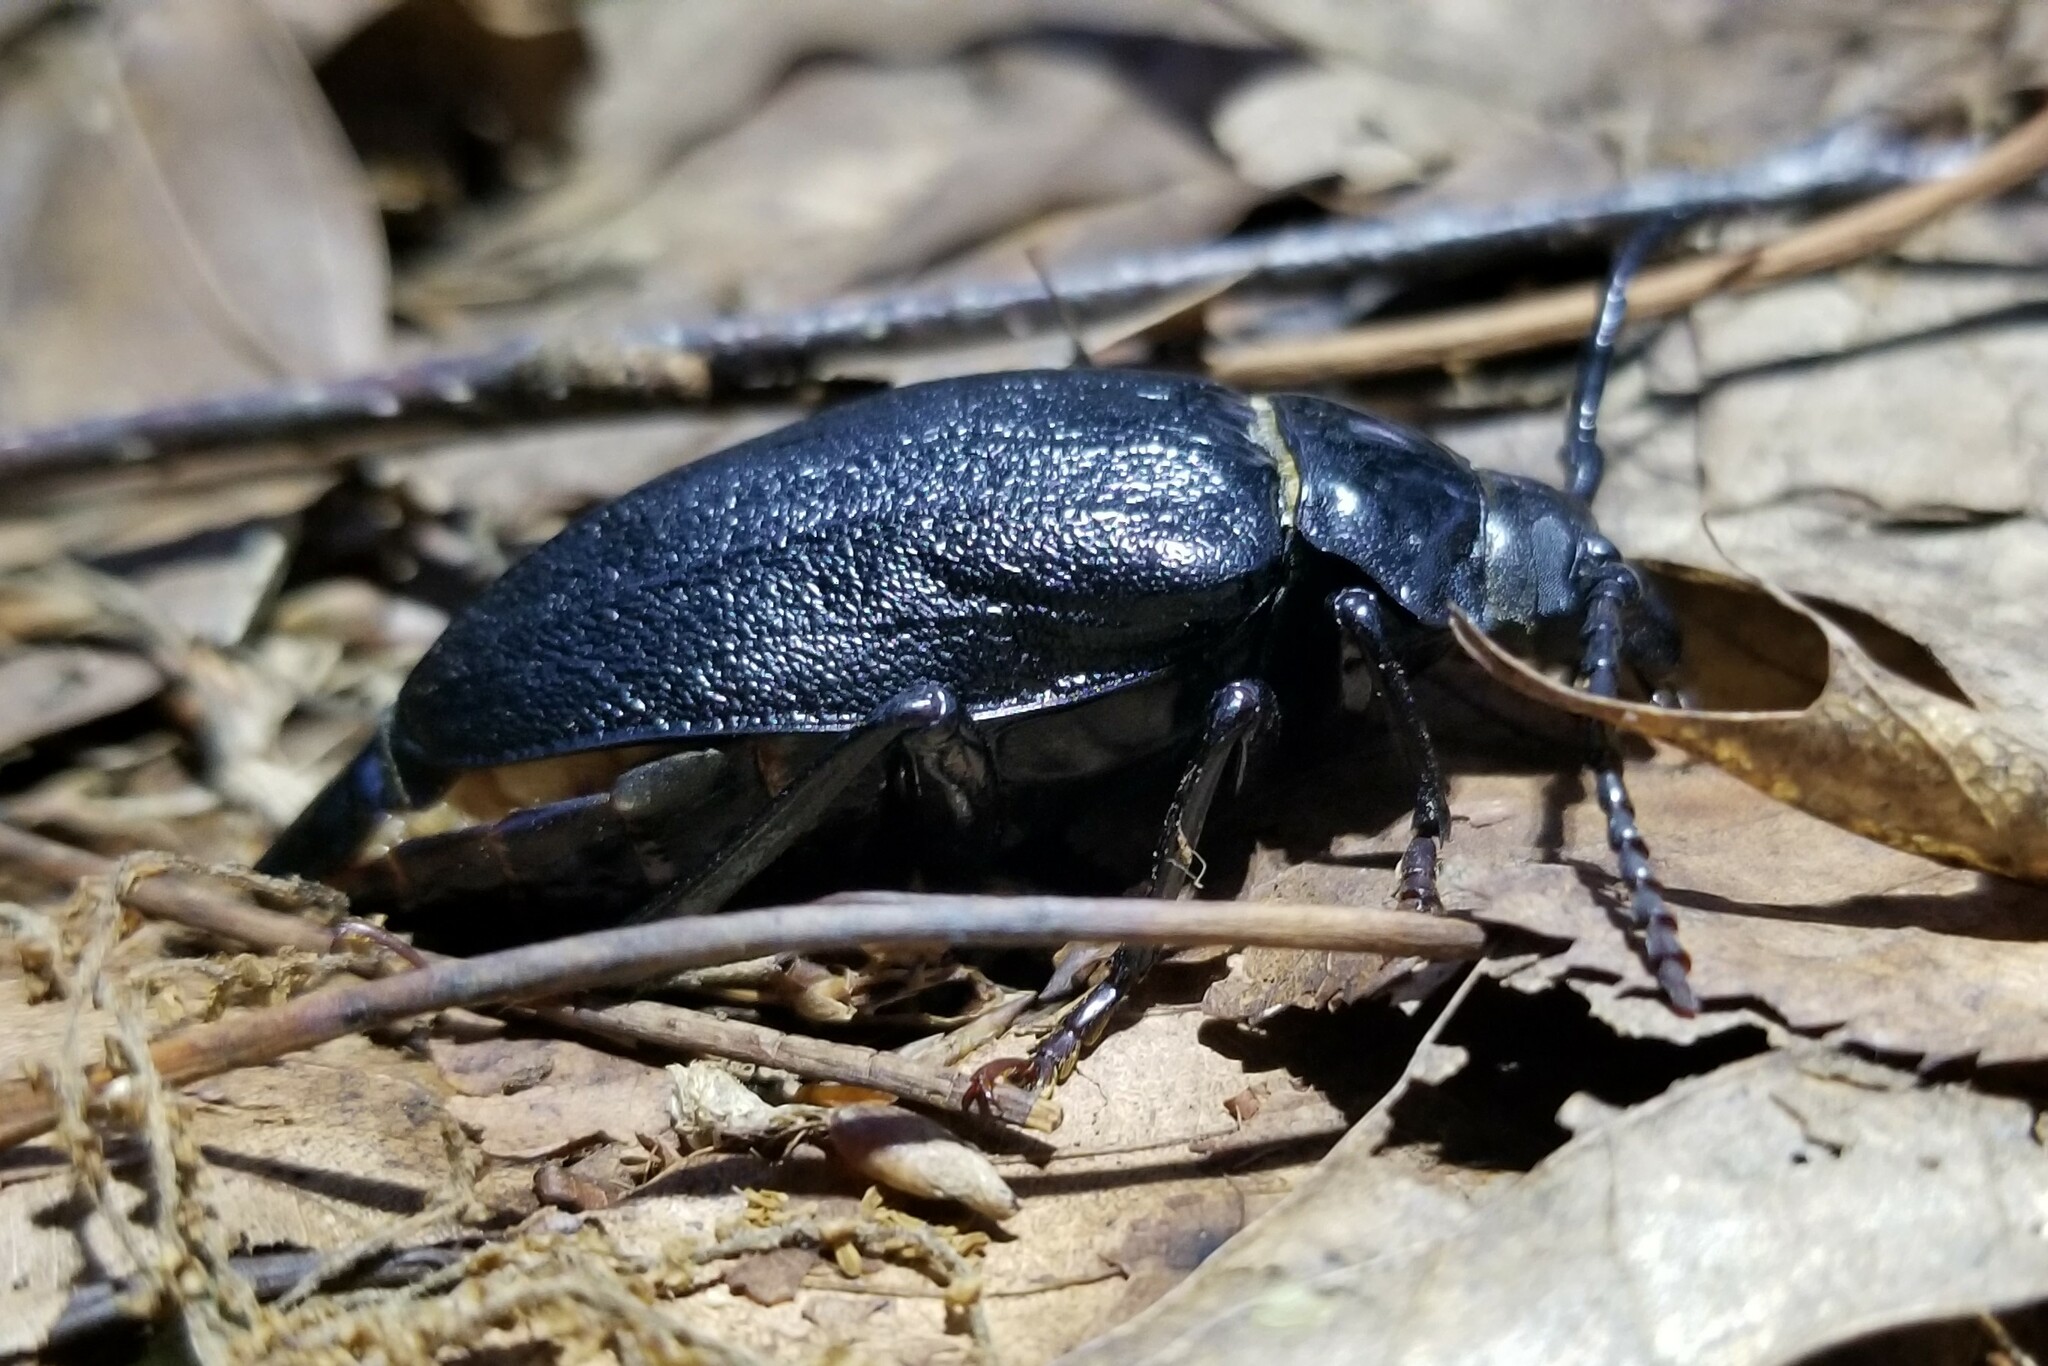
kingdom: Animalia
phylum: Arthropoda
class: Insecta
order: Coleoptera
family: Cerambycidae
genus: Prionus
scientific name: Prionus laticollis
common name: Broad necked prionus
